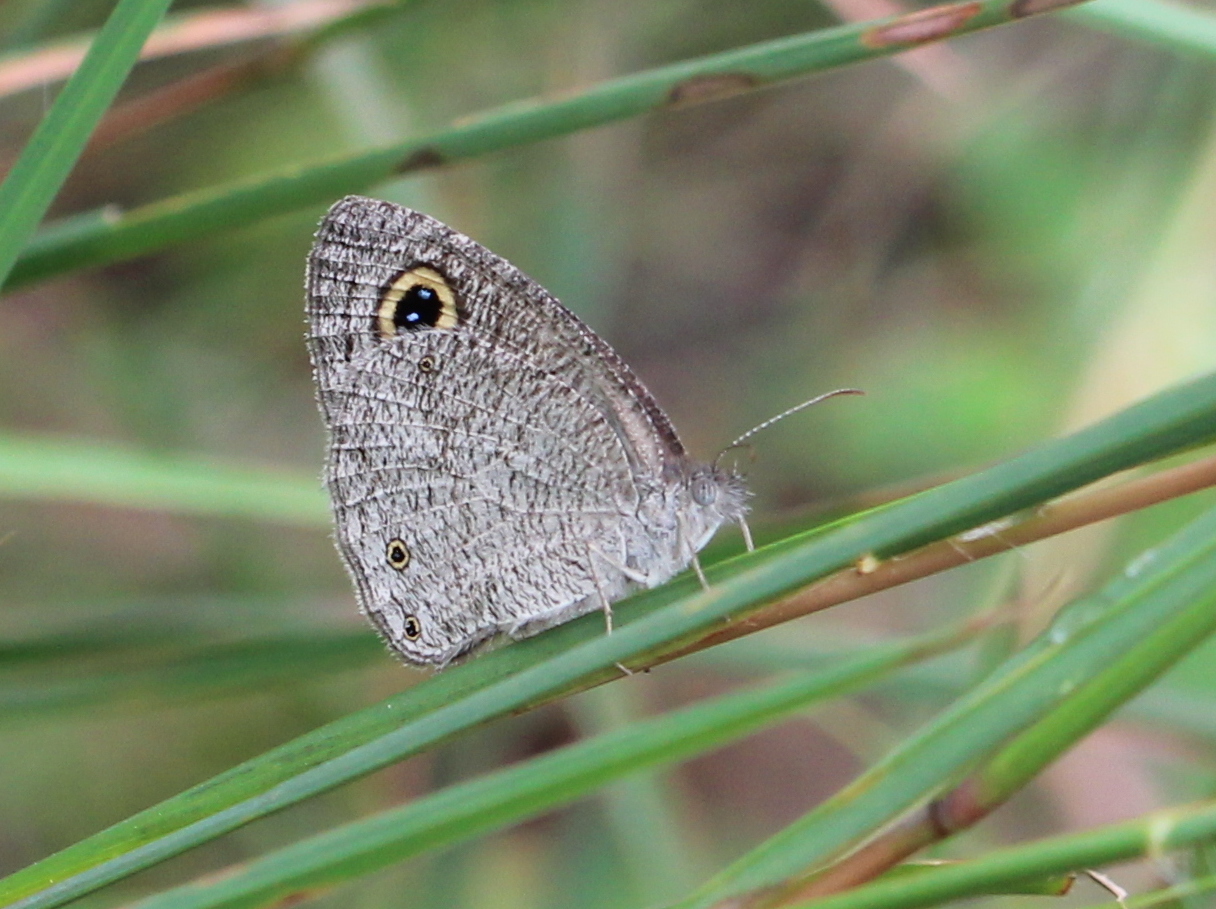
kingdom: Animalia
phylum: Arthropoda
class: Insecta
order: Lepidoptera
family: Nymphalidae
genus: Ypthima
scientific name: Ypthima asterope
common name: African ringlet
